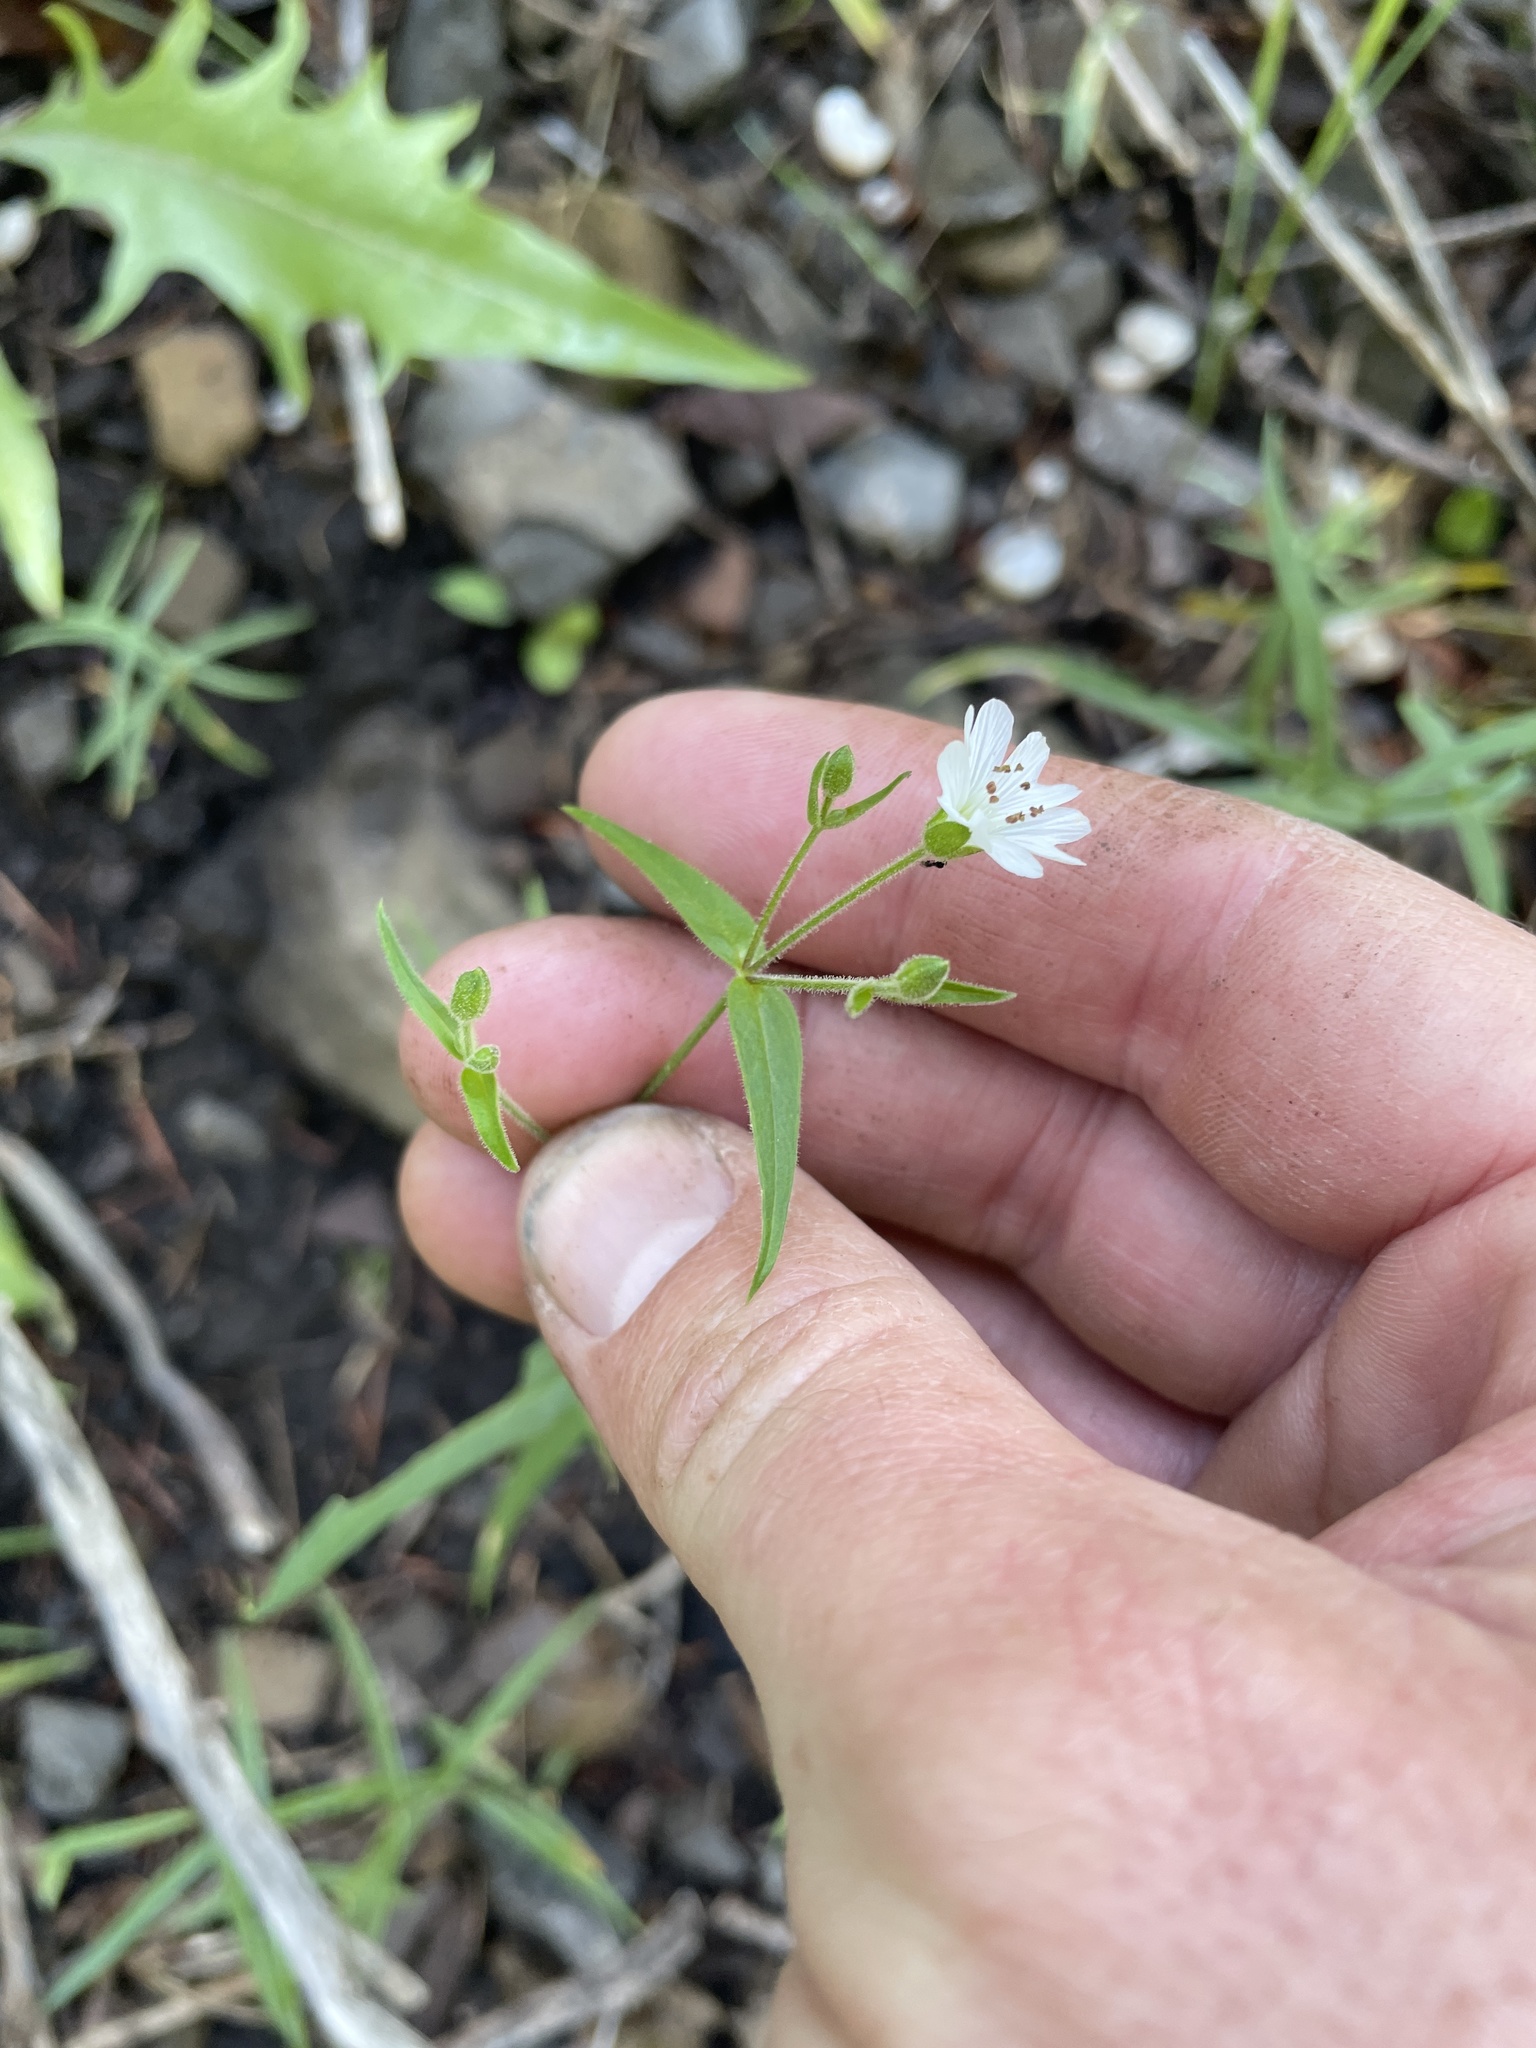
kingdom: Plantae
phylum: Tracheophyta
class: Magnoliopsida
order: Caryophyllales
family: Caryophyllaceae
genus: Schizotechium
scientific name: Schizotechium jamesianum
